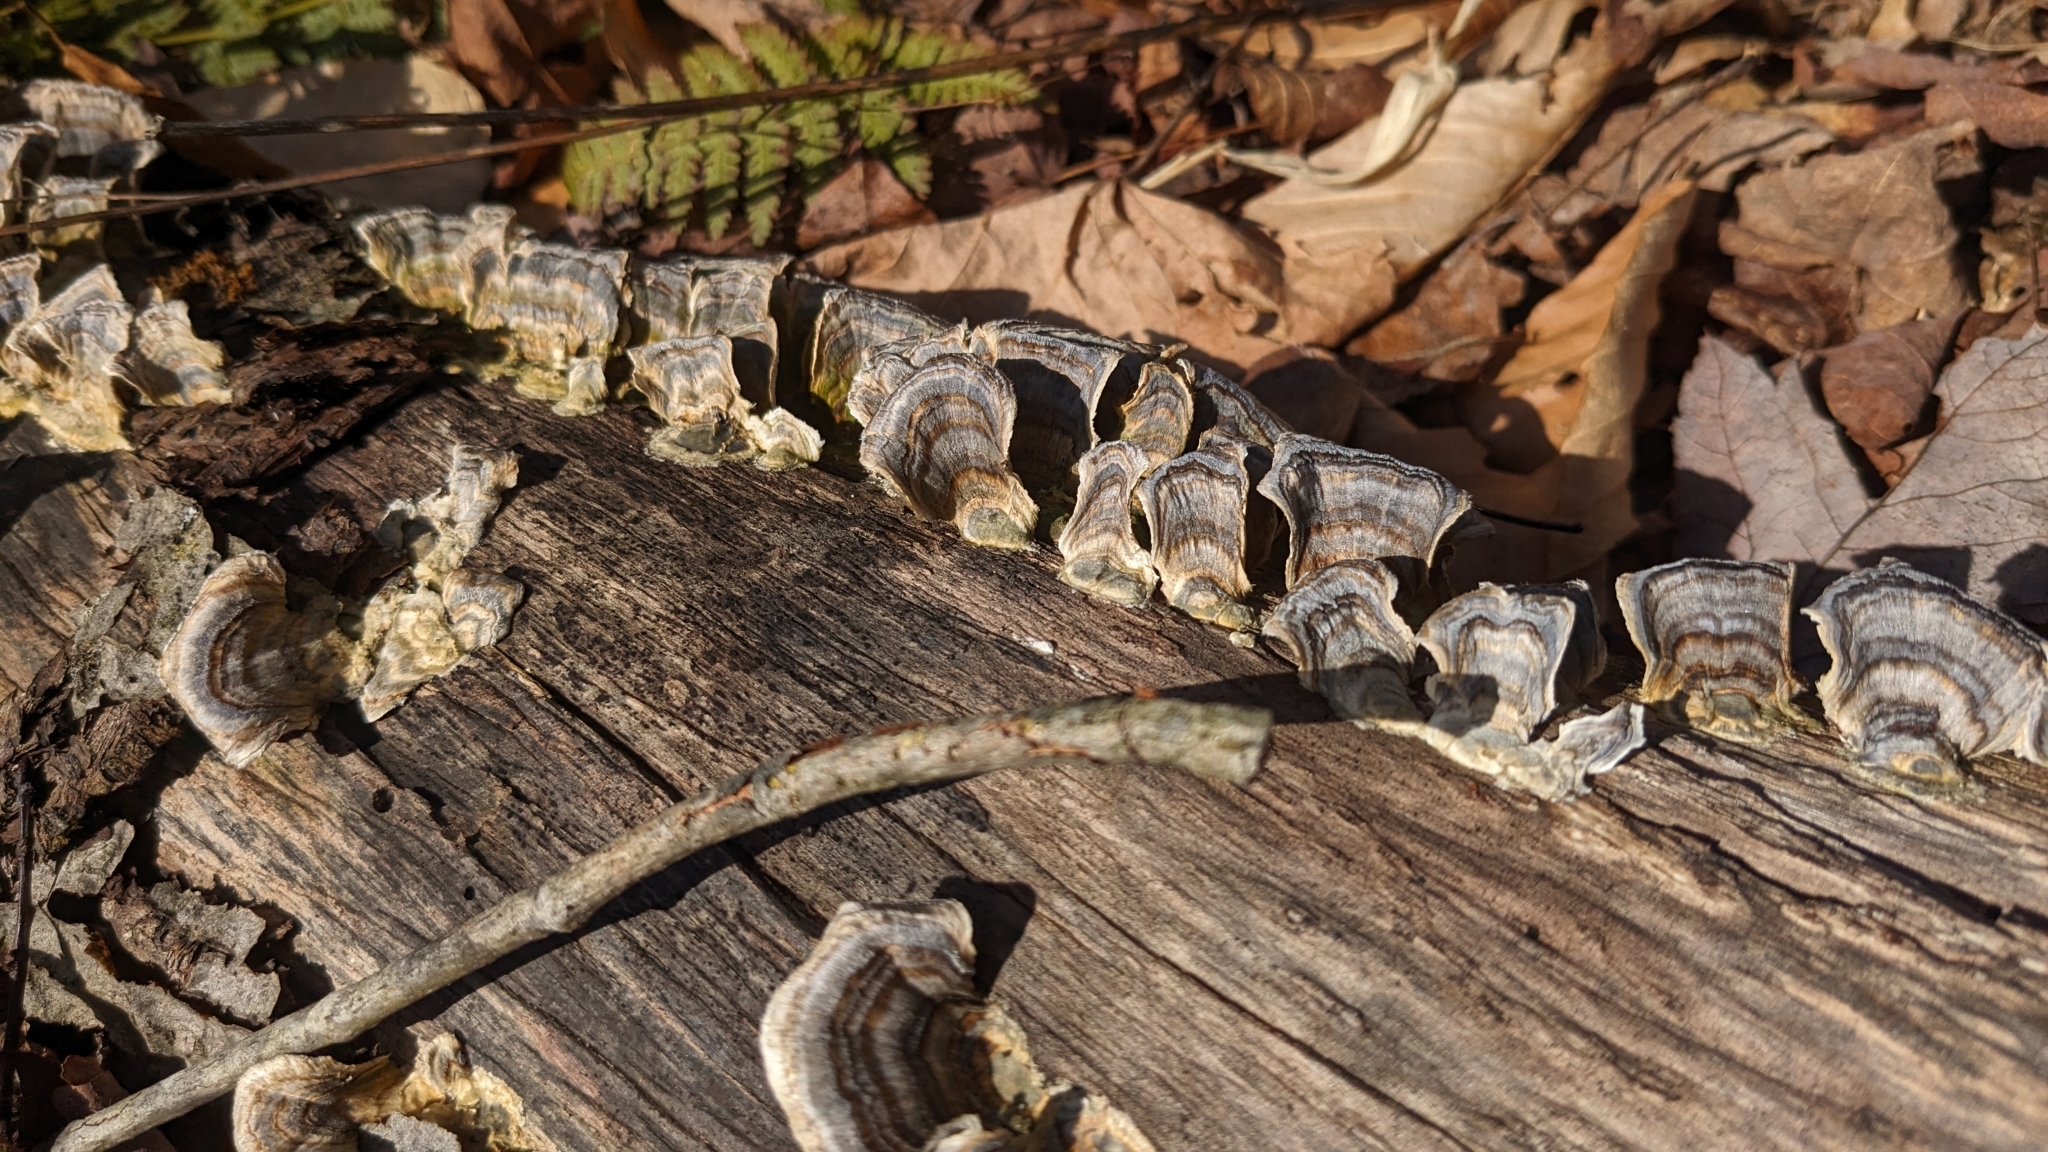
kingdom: Fungi
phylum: Basidiomycota
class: Agaricomycetes
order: Polyporales
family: Polyporaceae
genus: Trametes
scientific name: Trametes versicolor
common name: Turkeytail
